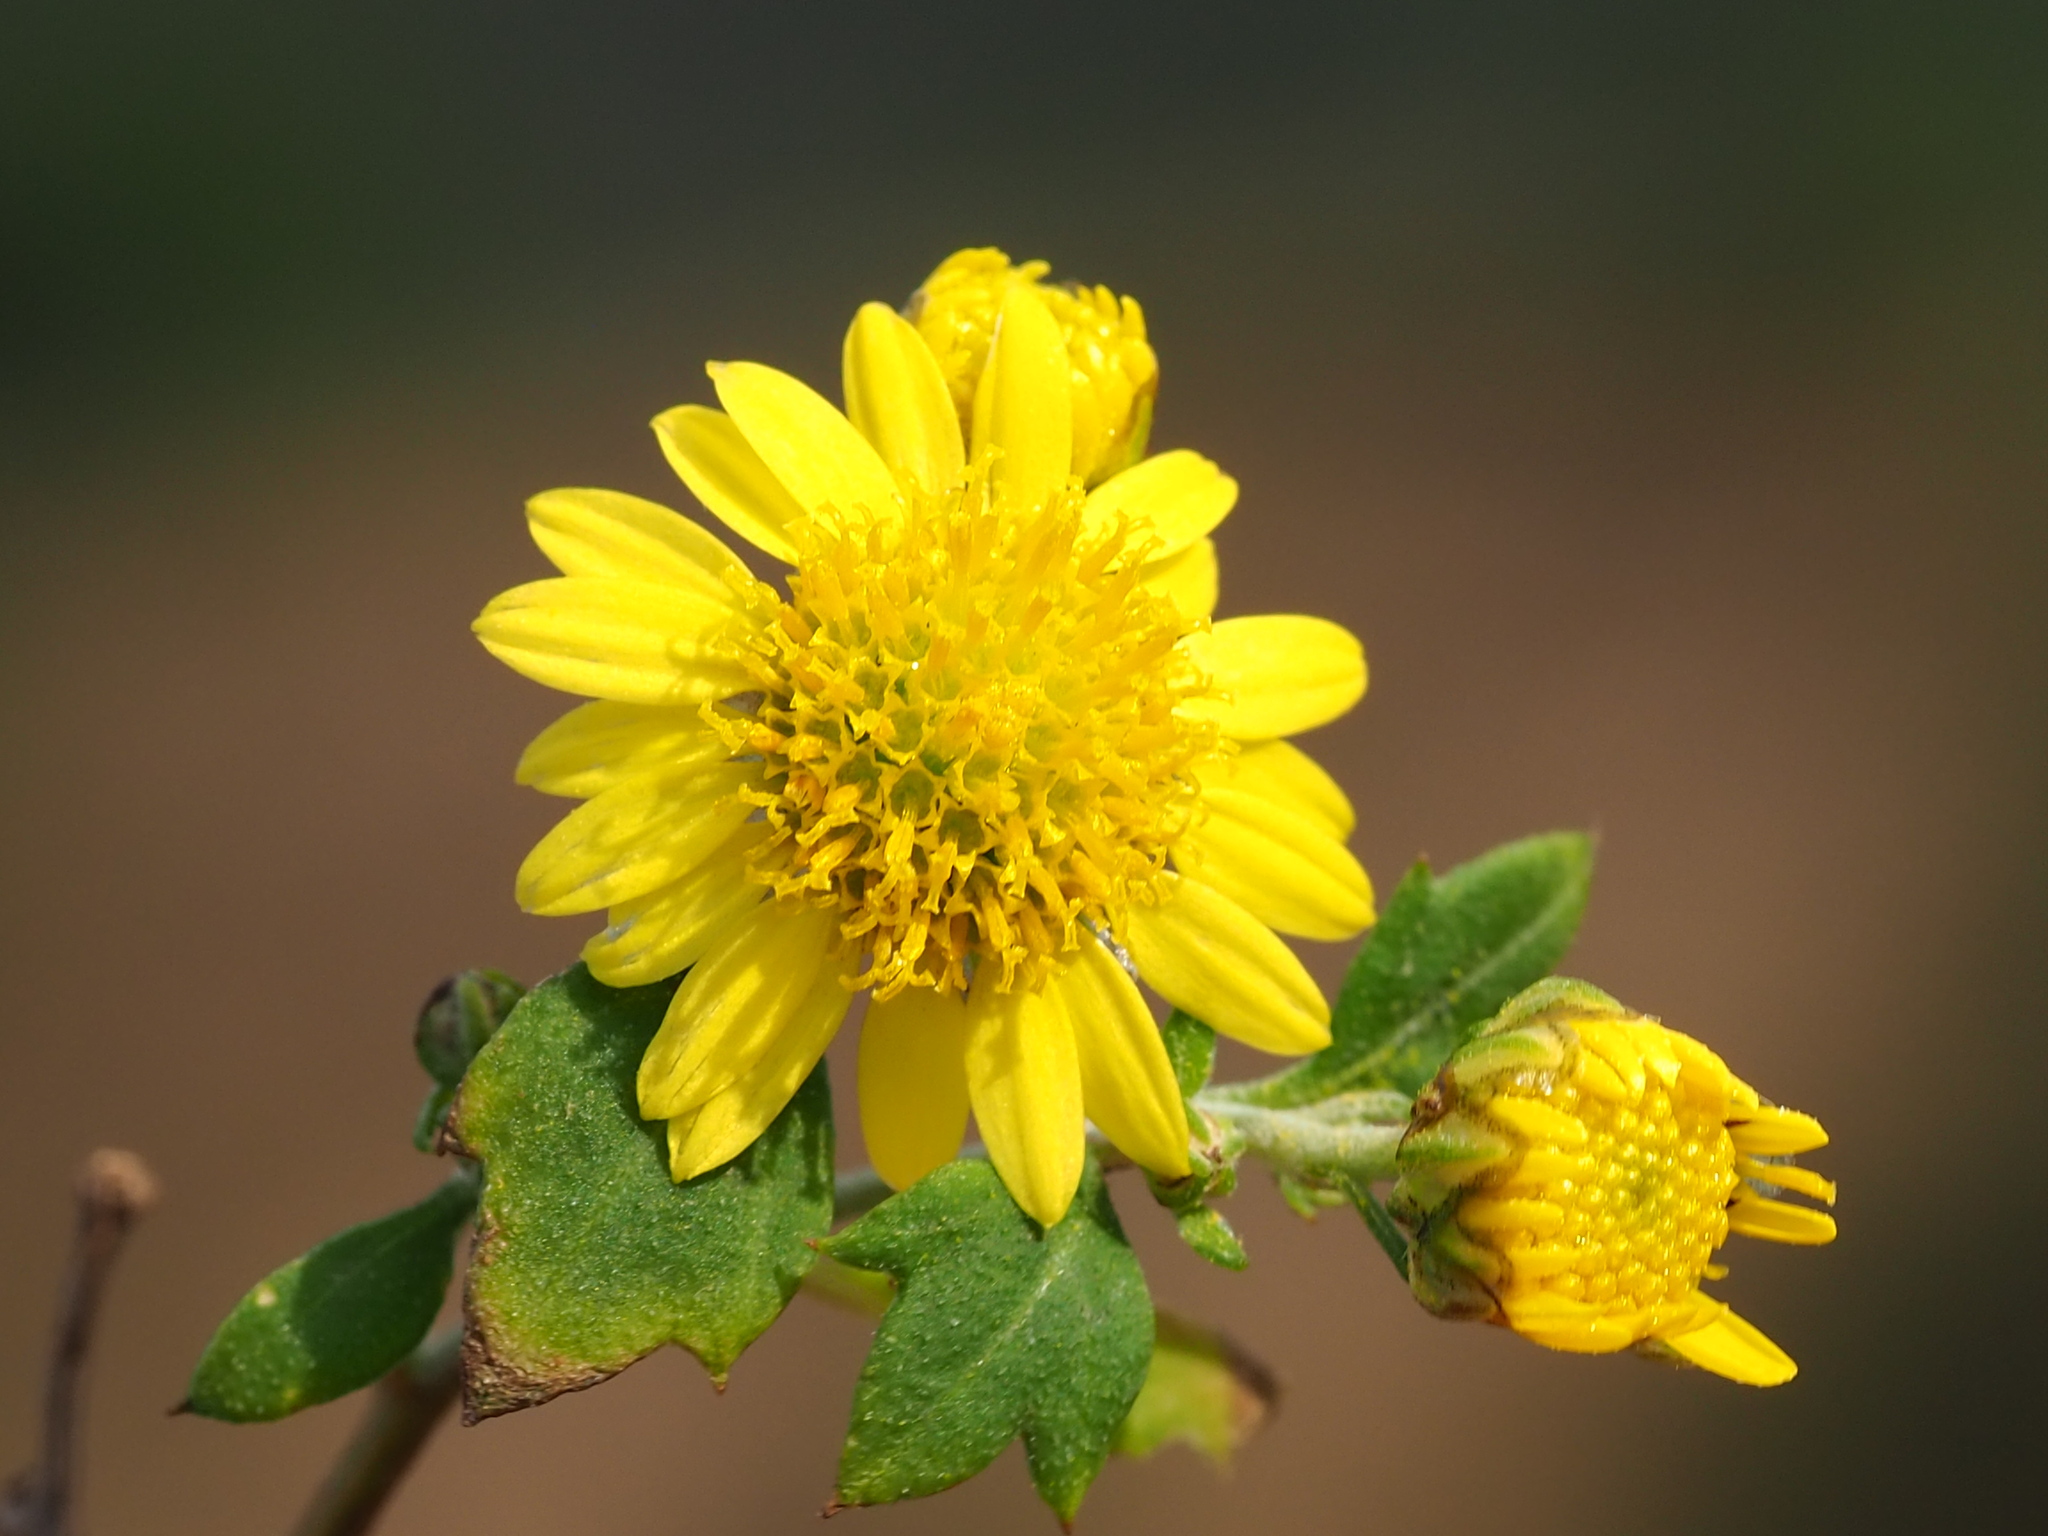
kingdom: Plantae
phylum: Tracheophyta
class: Magnoliopsida
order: Asterales
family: Asteraceae
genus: Chrysanthemum
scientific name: Chrysanthemum lavandulifolium
